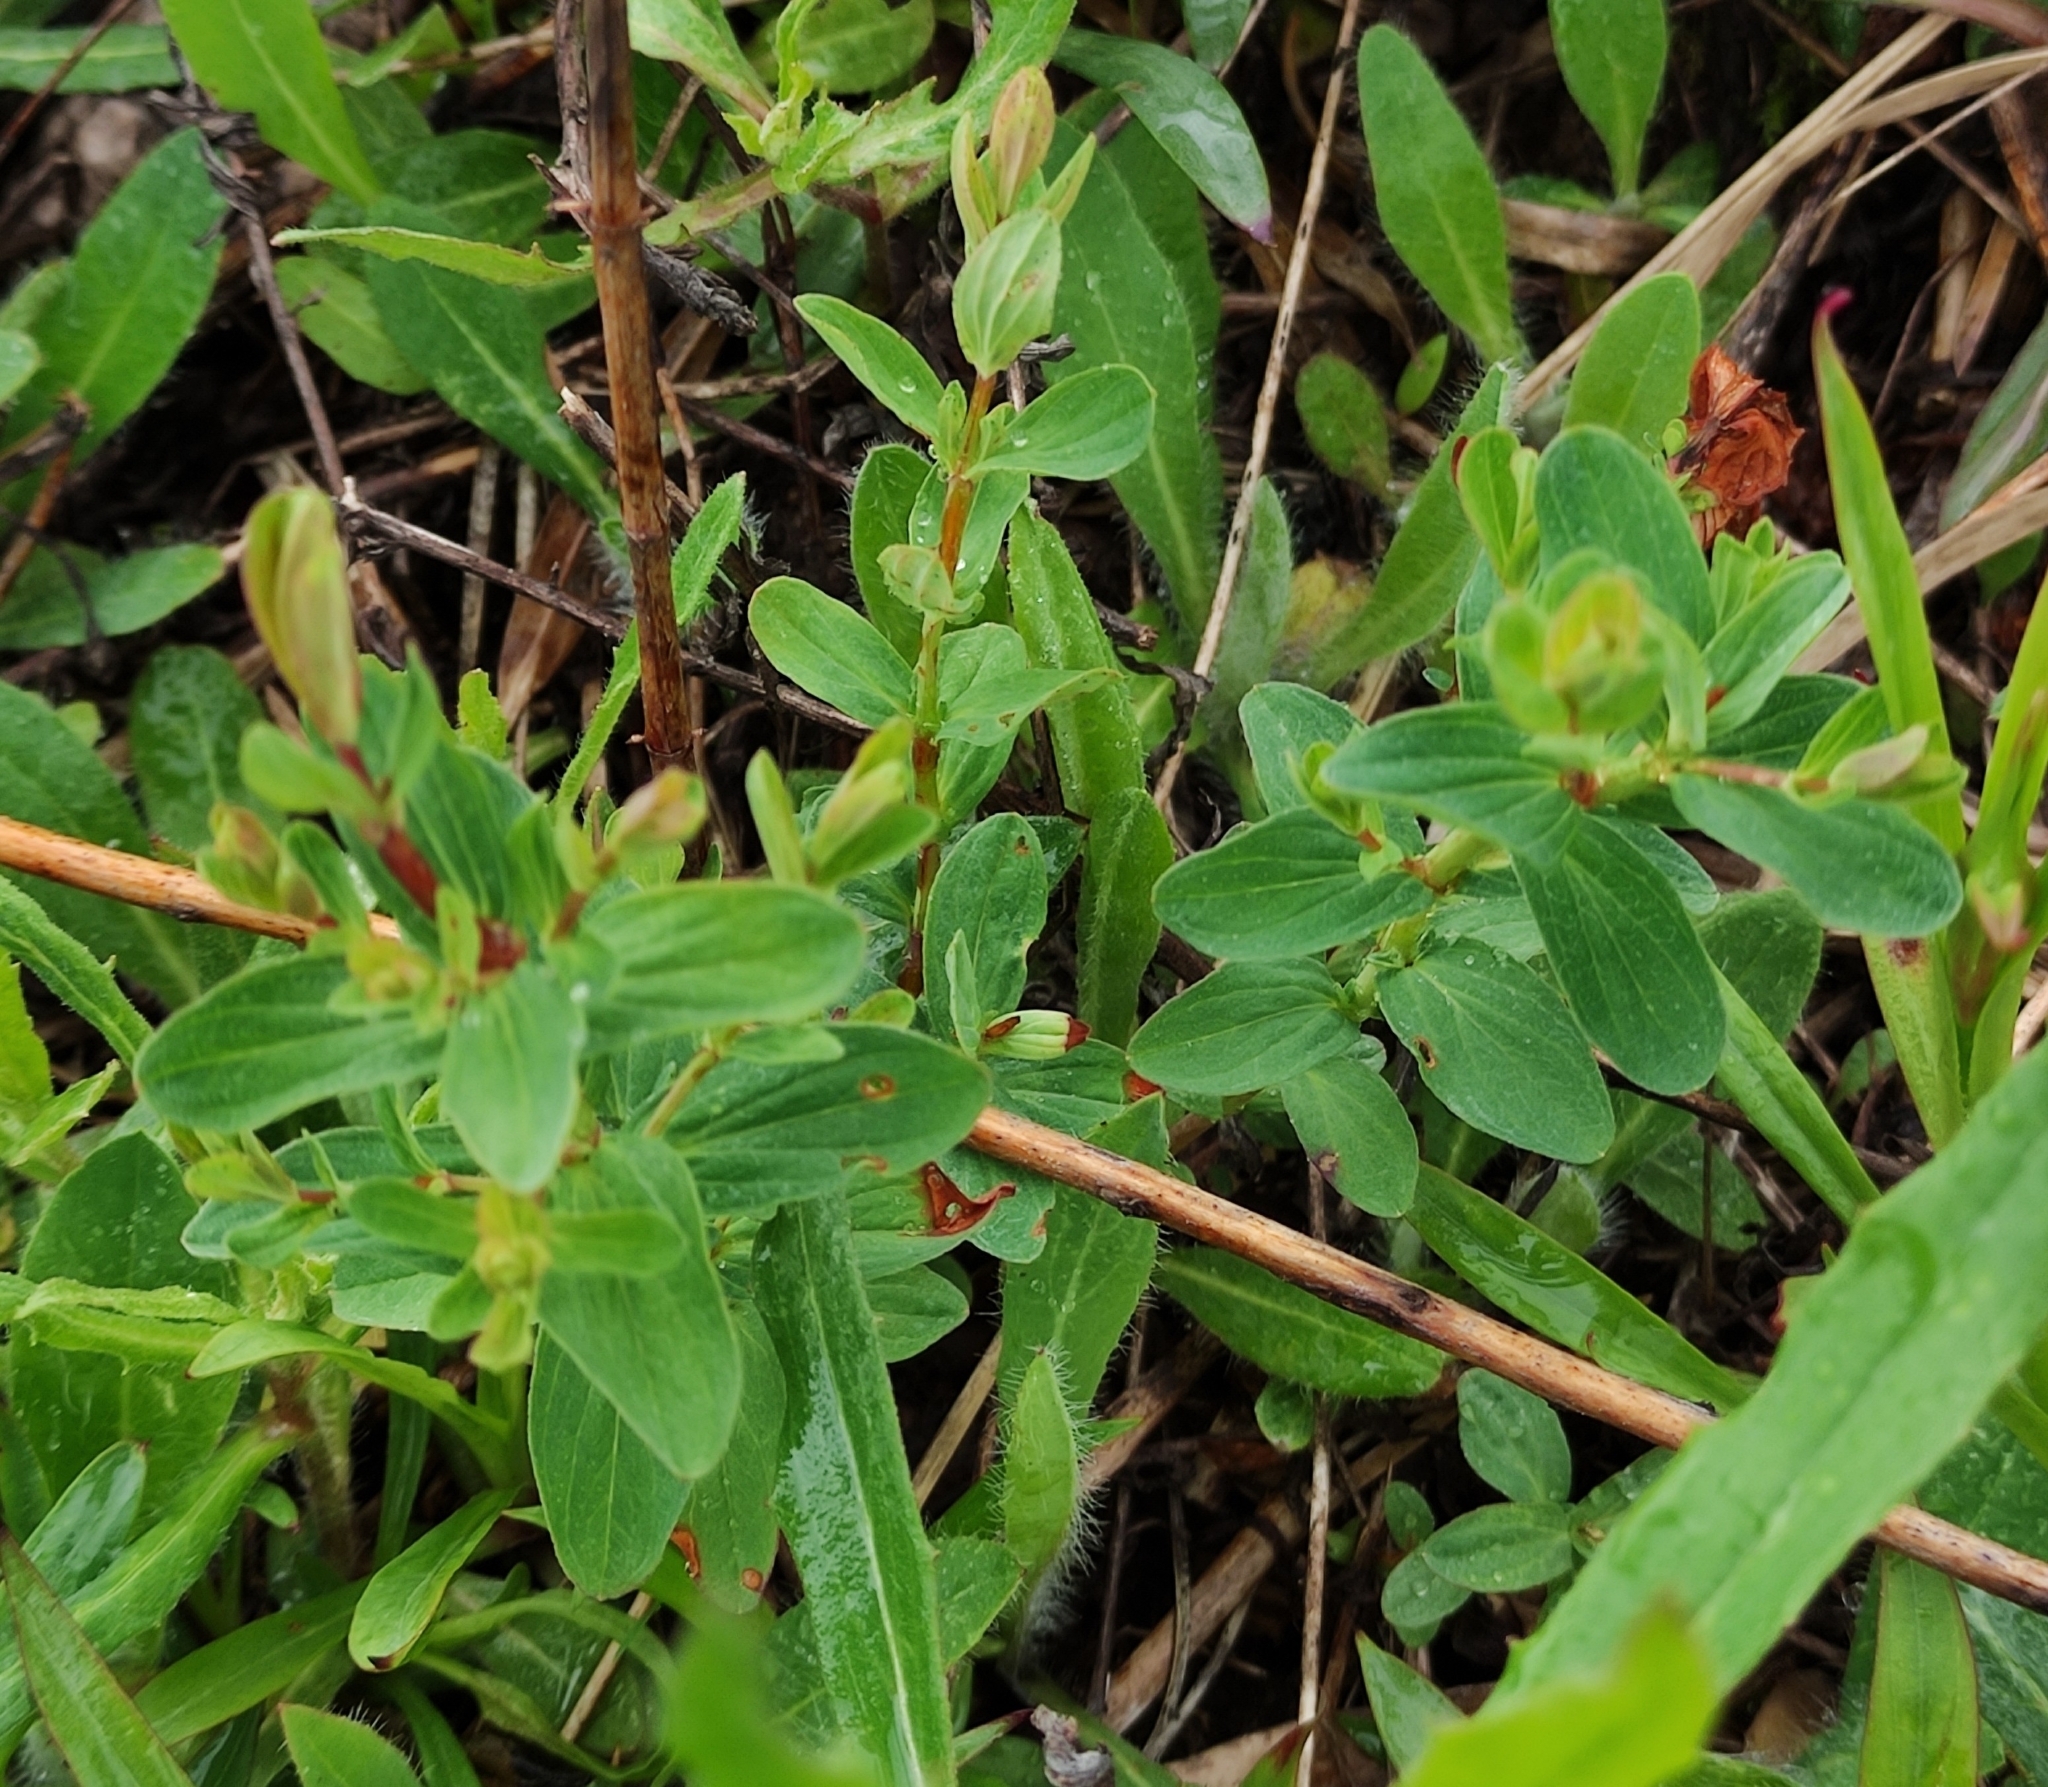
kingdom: Plantae
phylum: Tracheophyta
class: Magnoliopsida
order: Malpighiales
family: Hypericaceae
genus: Hypericum
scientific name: Hypericum perforatum
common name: Common st. johnswort
